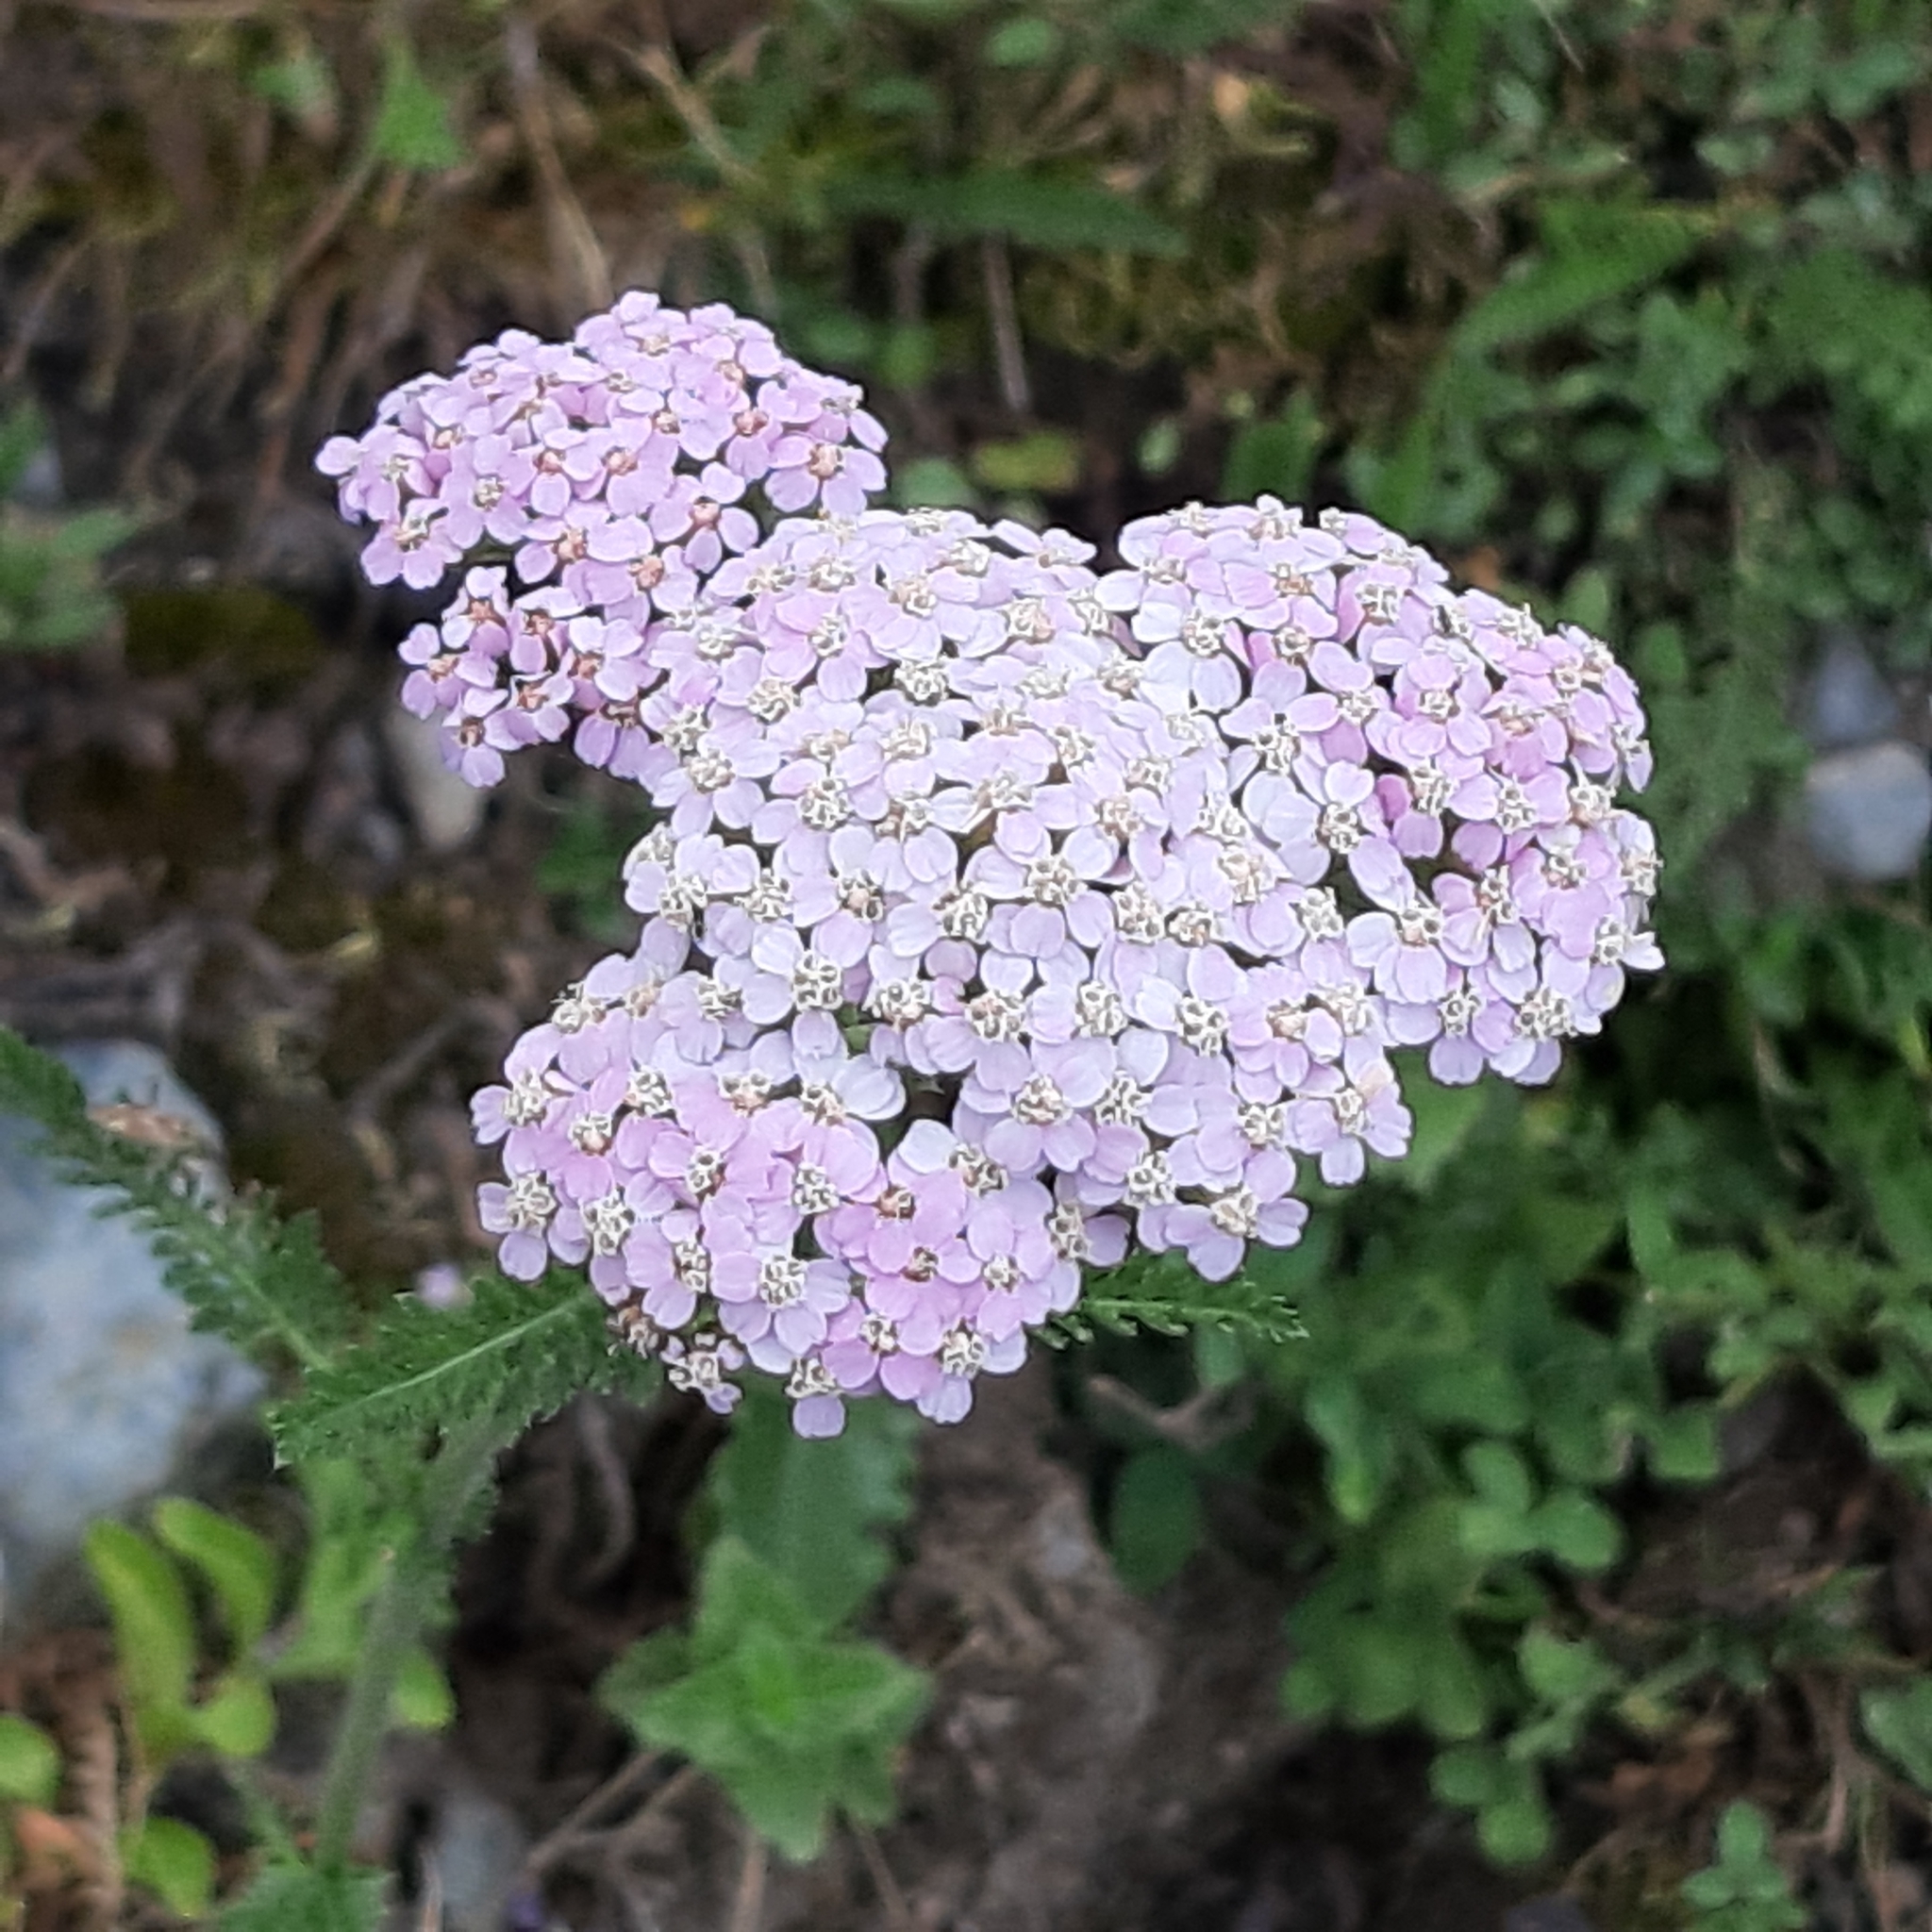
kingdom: Plantae
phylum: Tracheophyta
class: Magnoliopsida
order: Asterales
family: Asteraceae
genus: Achillea
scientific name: Achillea millefolium
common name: Yarrow
